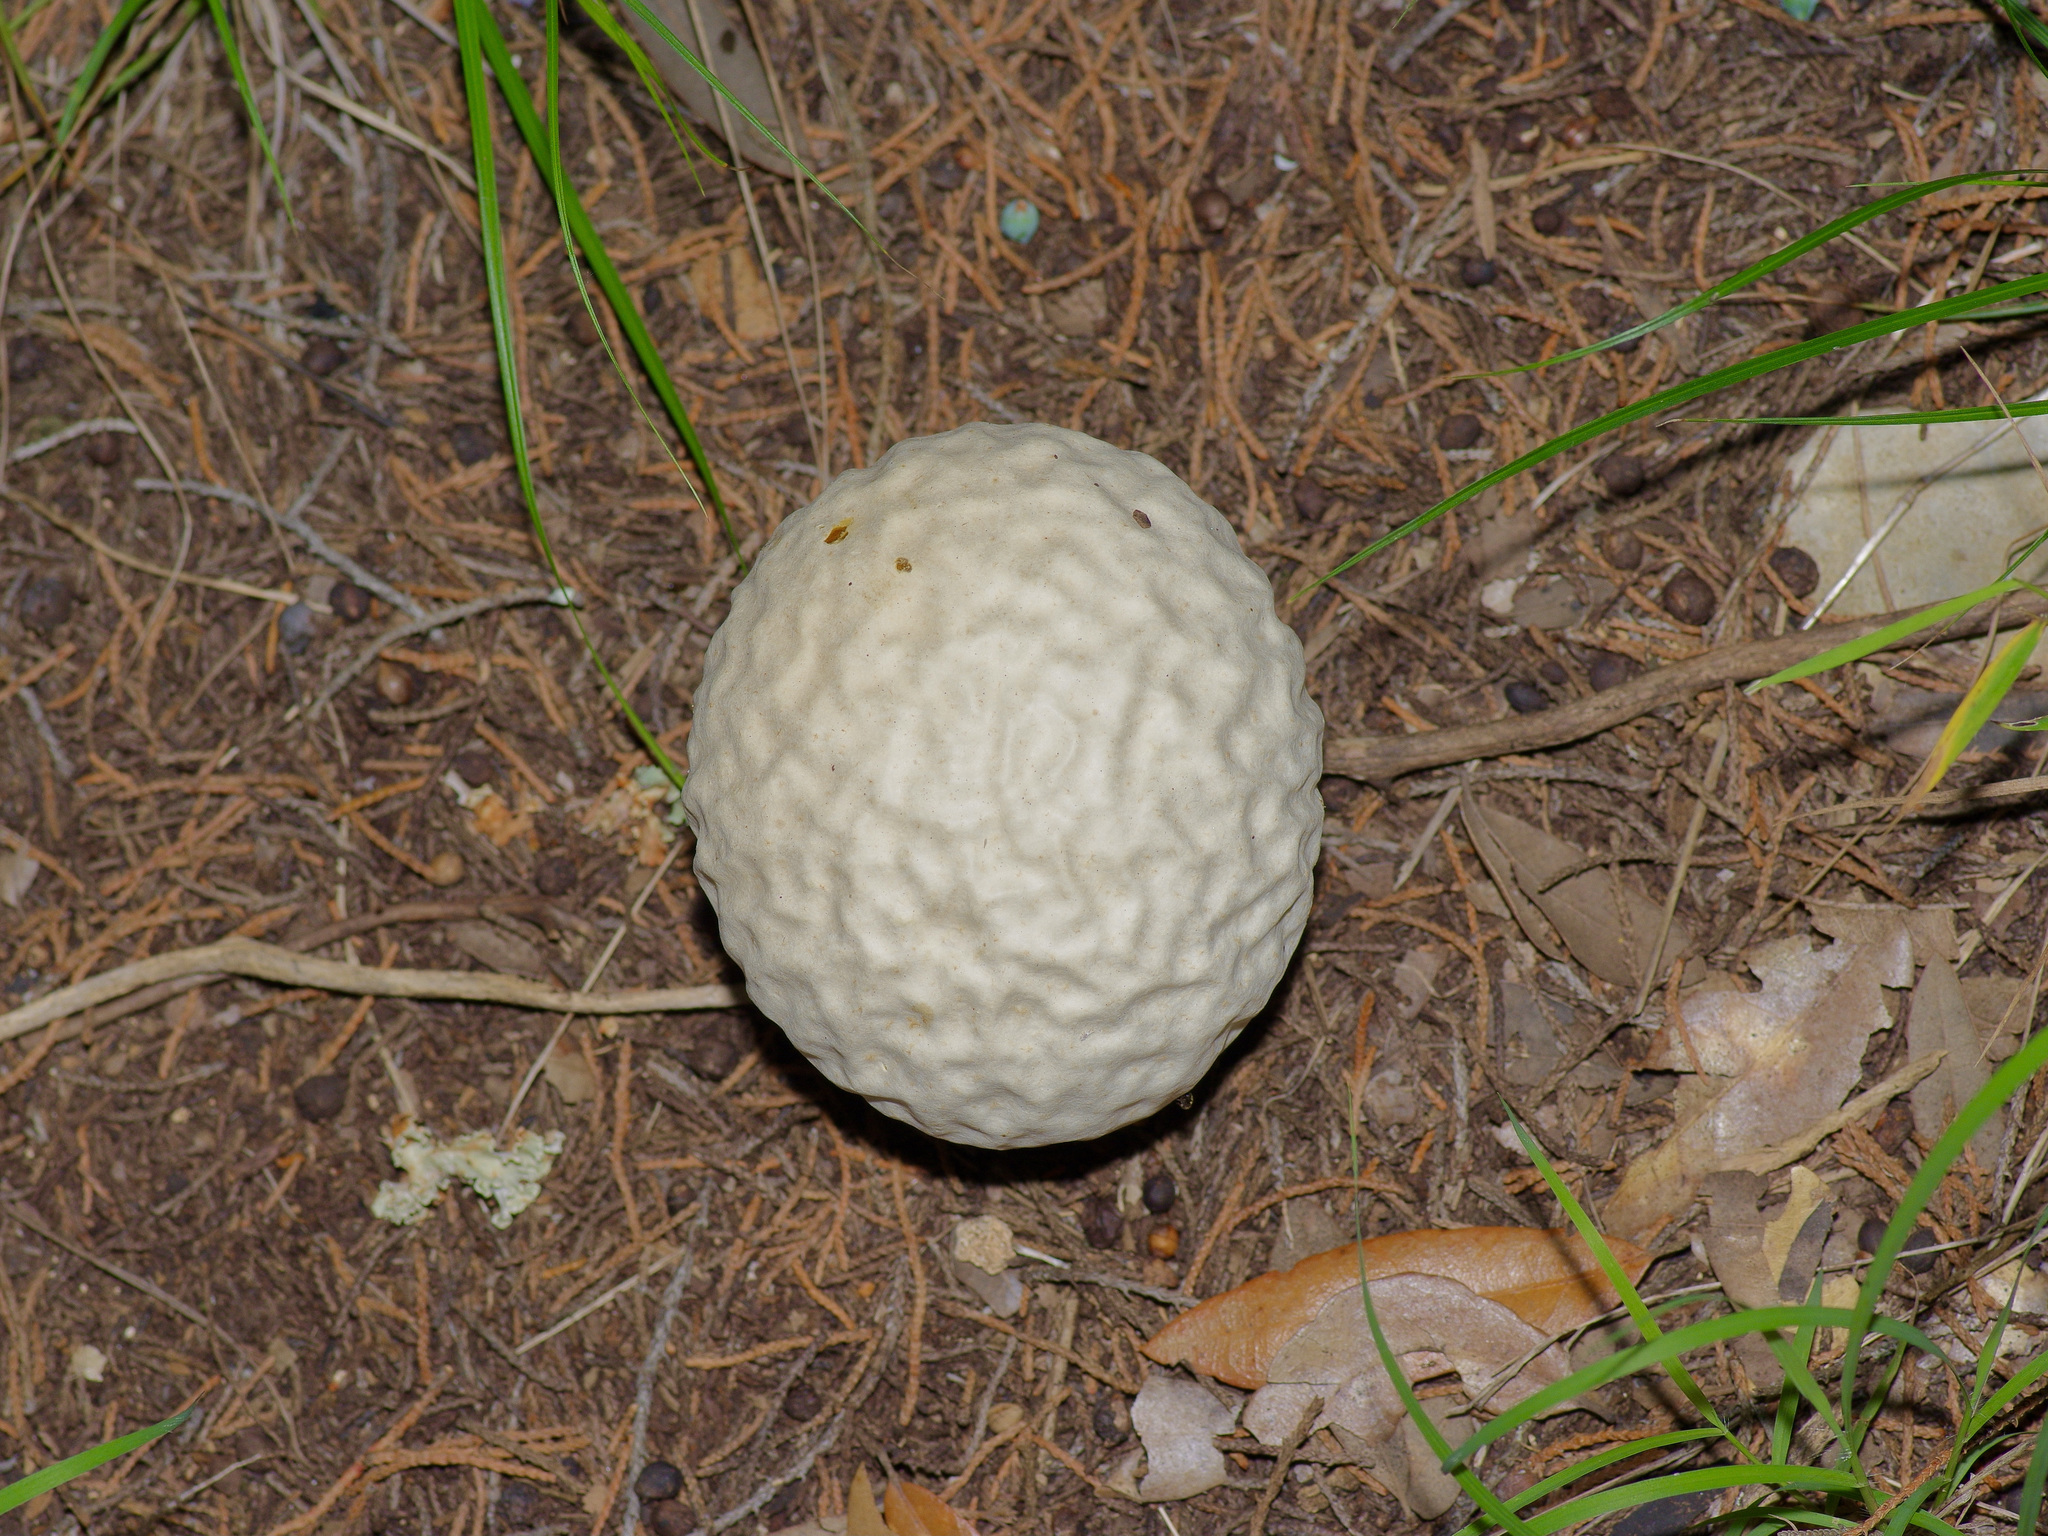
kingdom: Fungi
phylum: Basidiomycota
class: Agaricomycetes
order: Agaricales
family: Lycoperdaceae
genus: Calvatia
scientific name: Calvatia craniiformis
